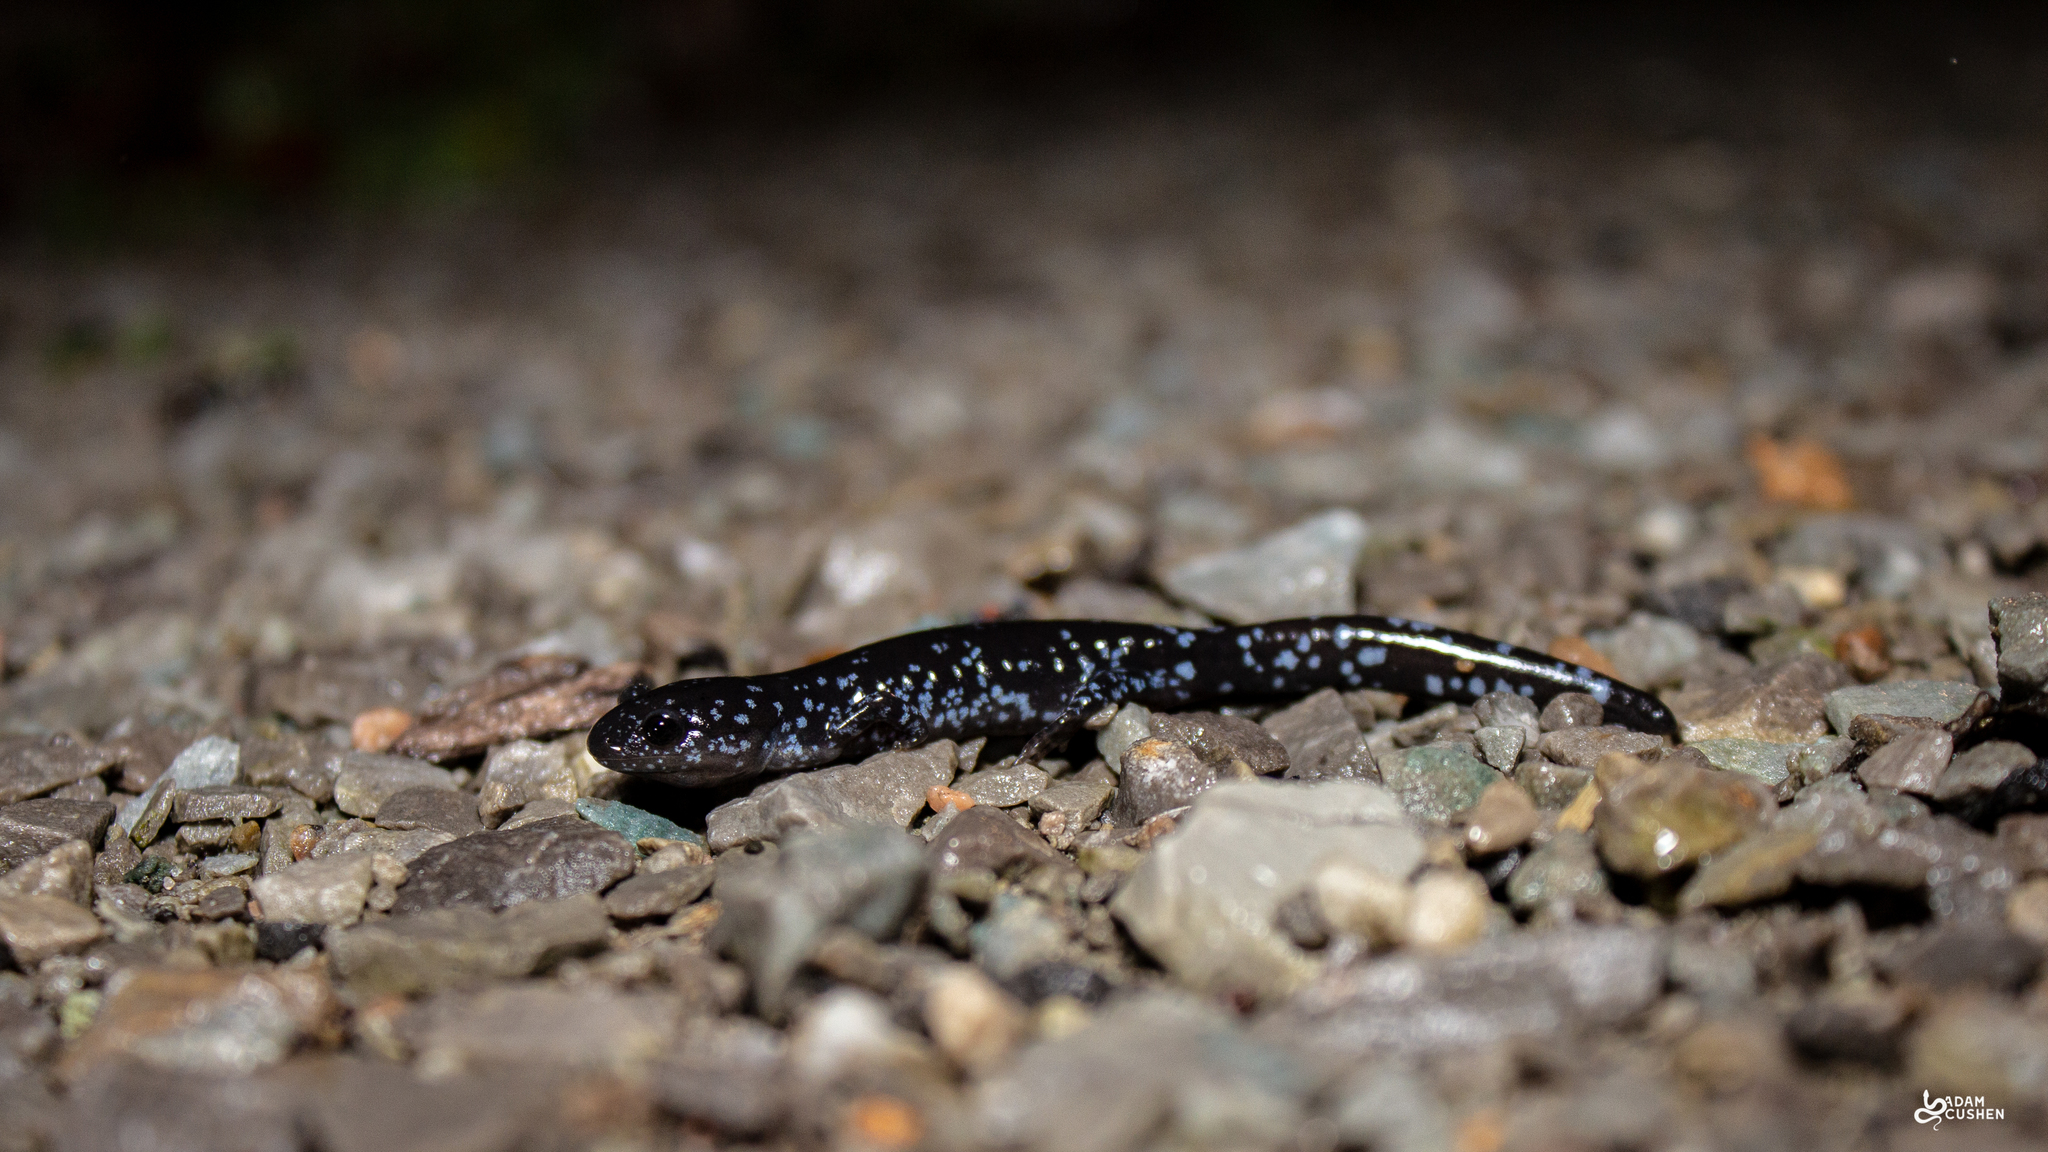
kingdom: Animalia
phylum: Chordata
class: Amphibia
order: Caudata
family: Ambystomatidae
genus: Ambystoma
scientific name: Ambystoma laterale
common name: Blue-spotted salamander
